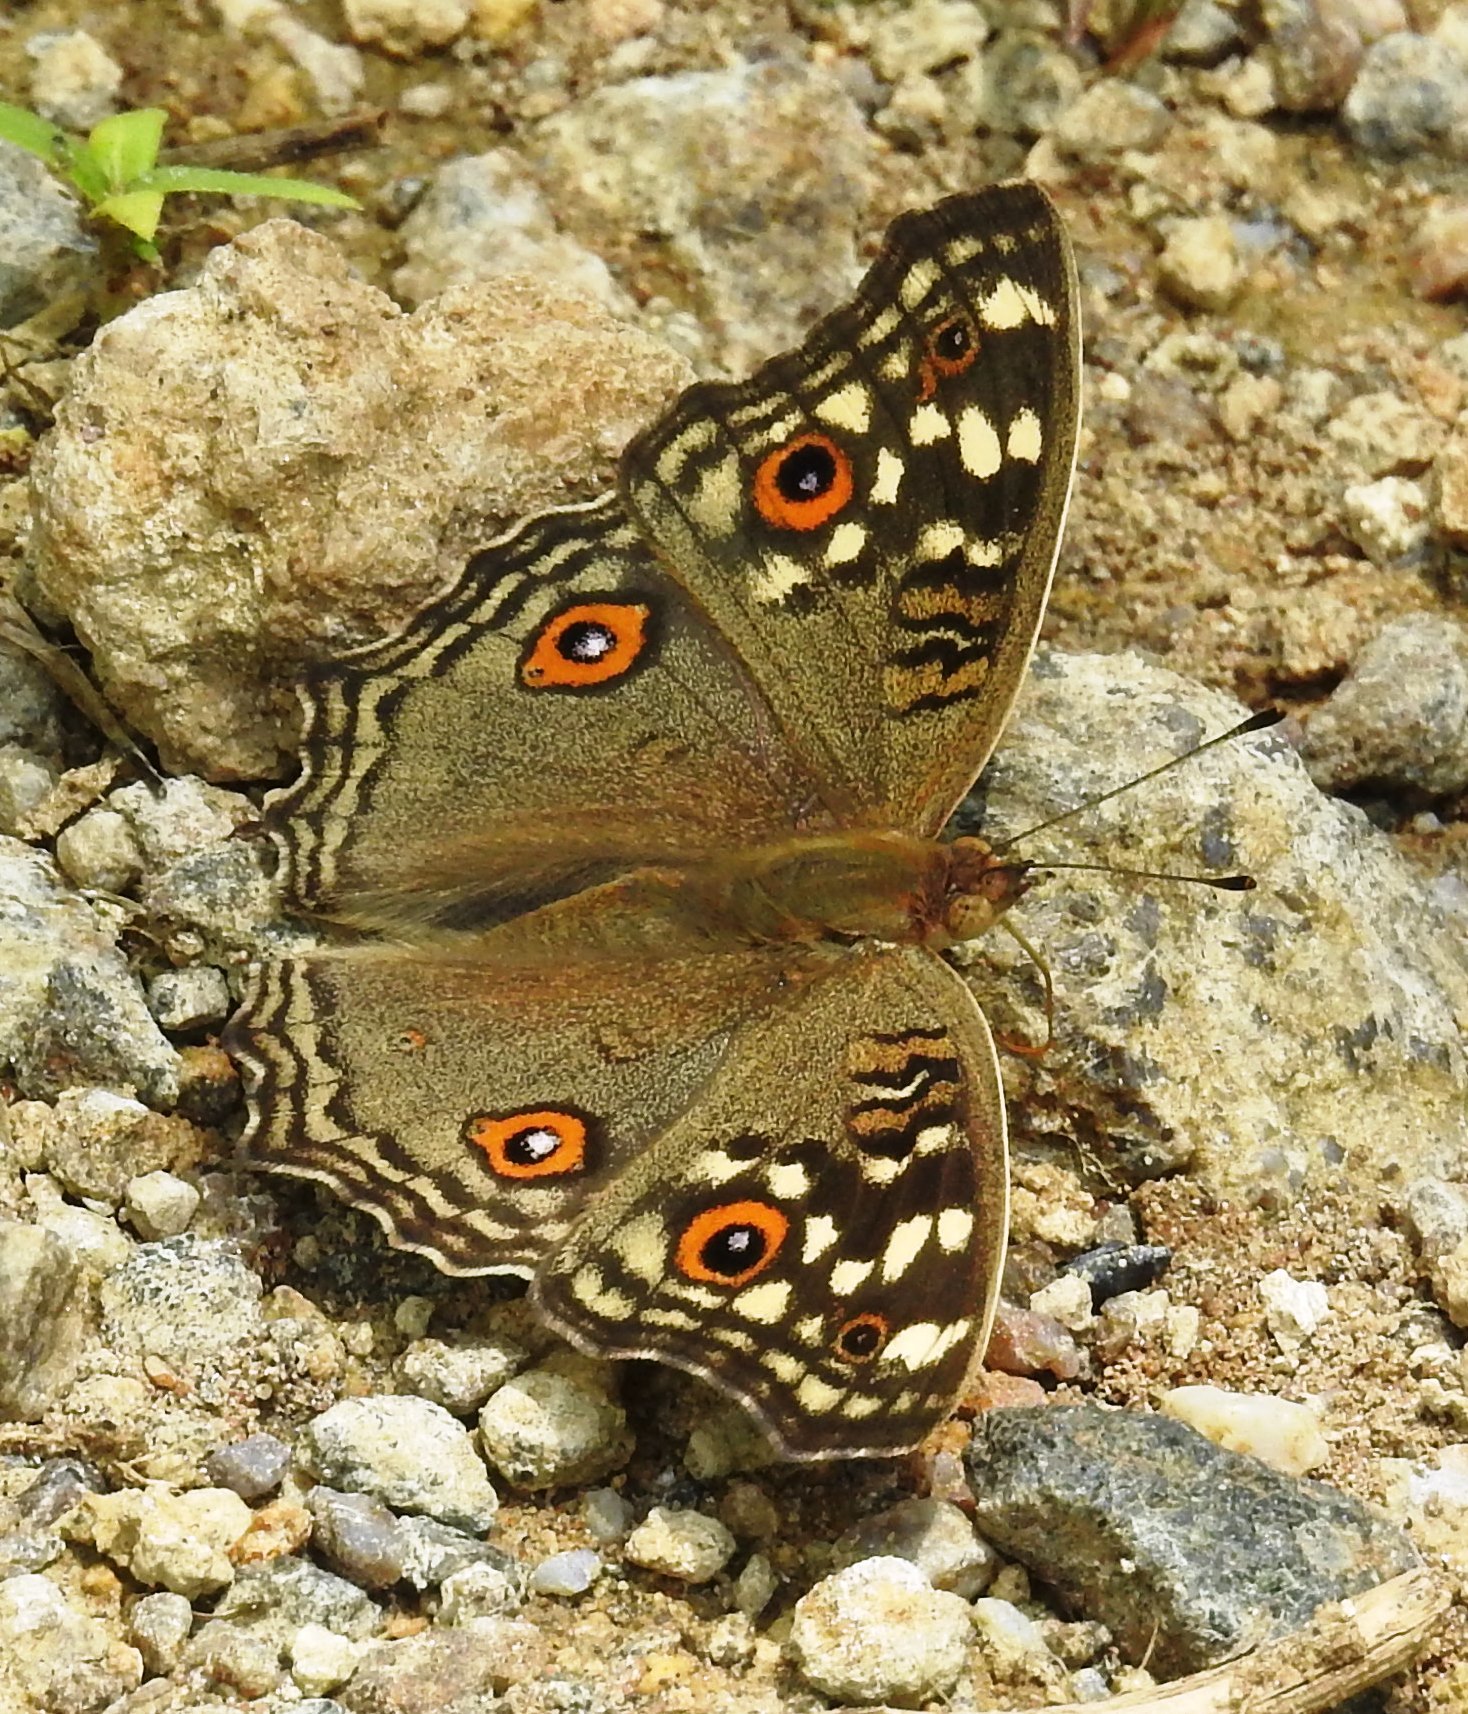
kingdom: Animalia
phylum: Arthropoda
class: Insecta
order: Lepidoptera
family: Nymphalidae
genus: Junonia
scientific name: Junonia lemonias
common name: Lemon pansy
